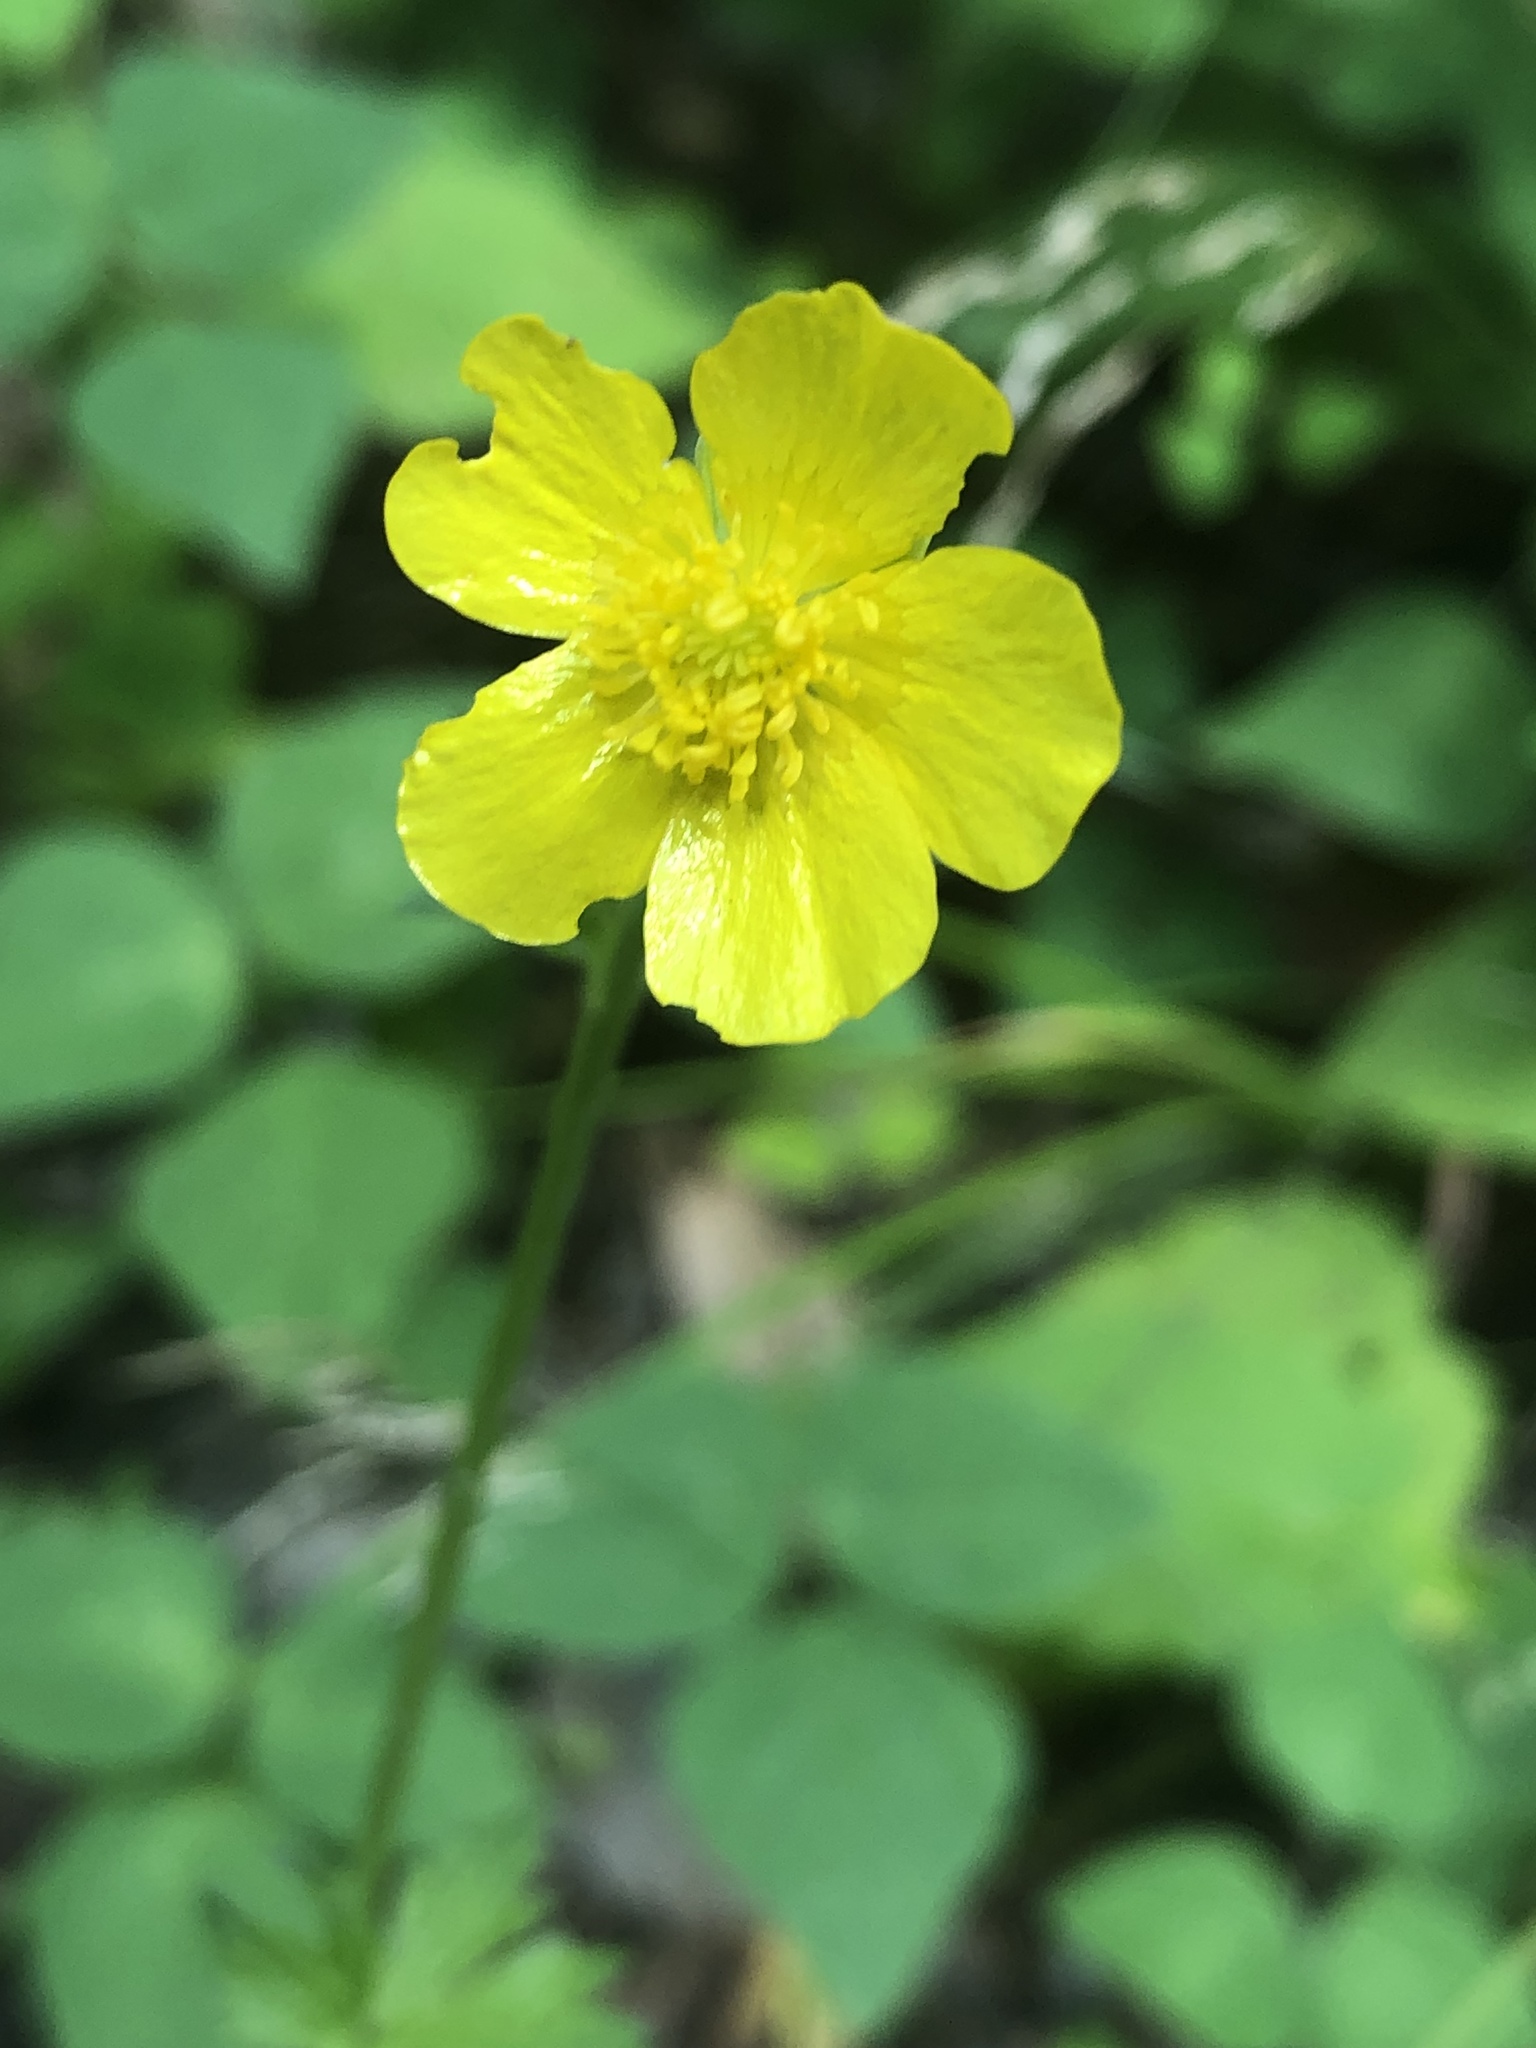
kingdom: Plantae
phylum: Tracheophyta
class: Magnoliopsida
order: Ranunculales
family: Ranunculaceae
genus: Ranunculus
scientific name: Ranunculus acris
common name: Meadow buttercup
